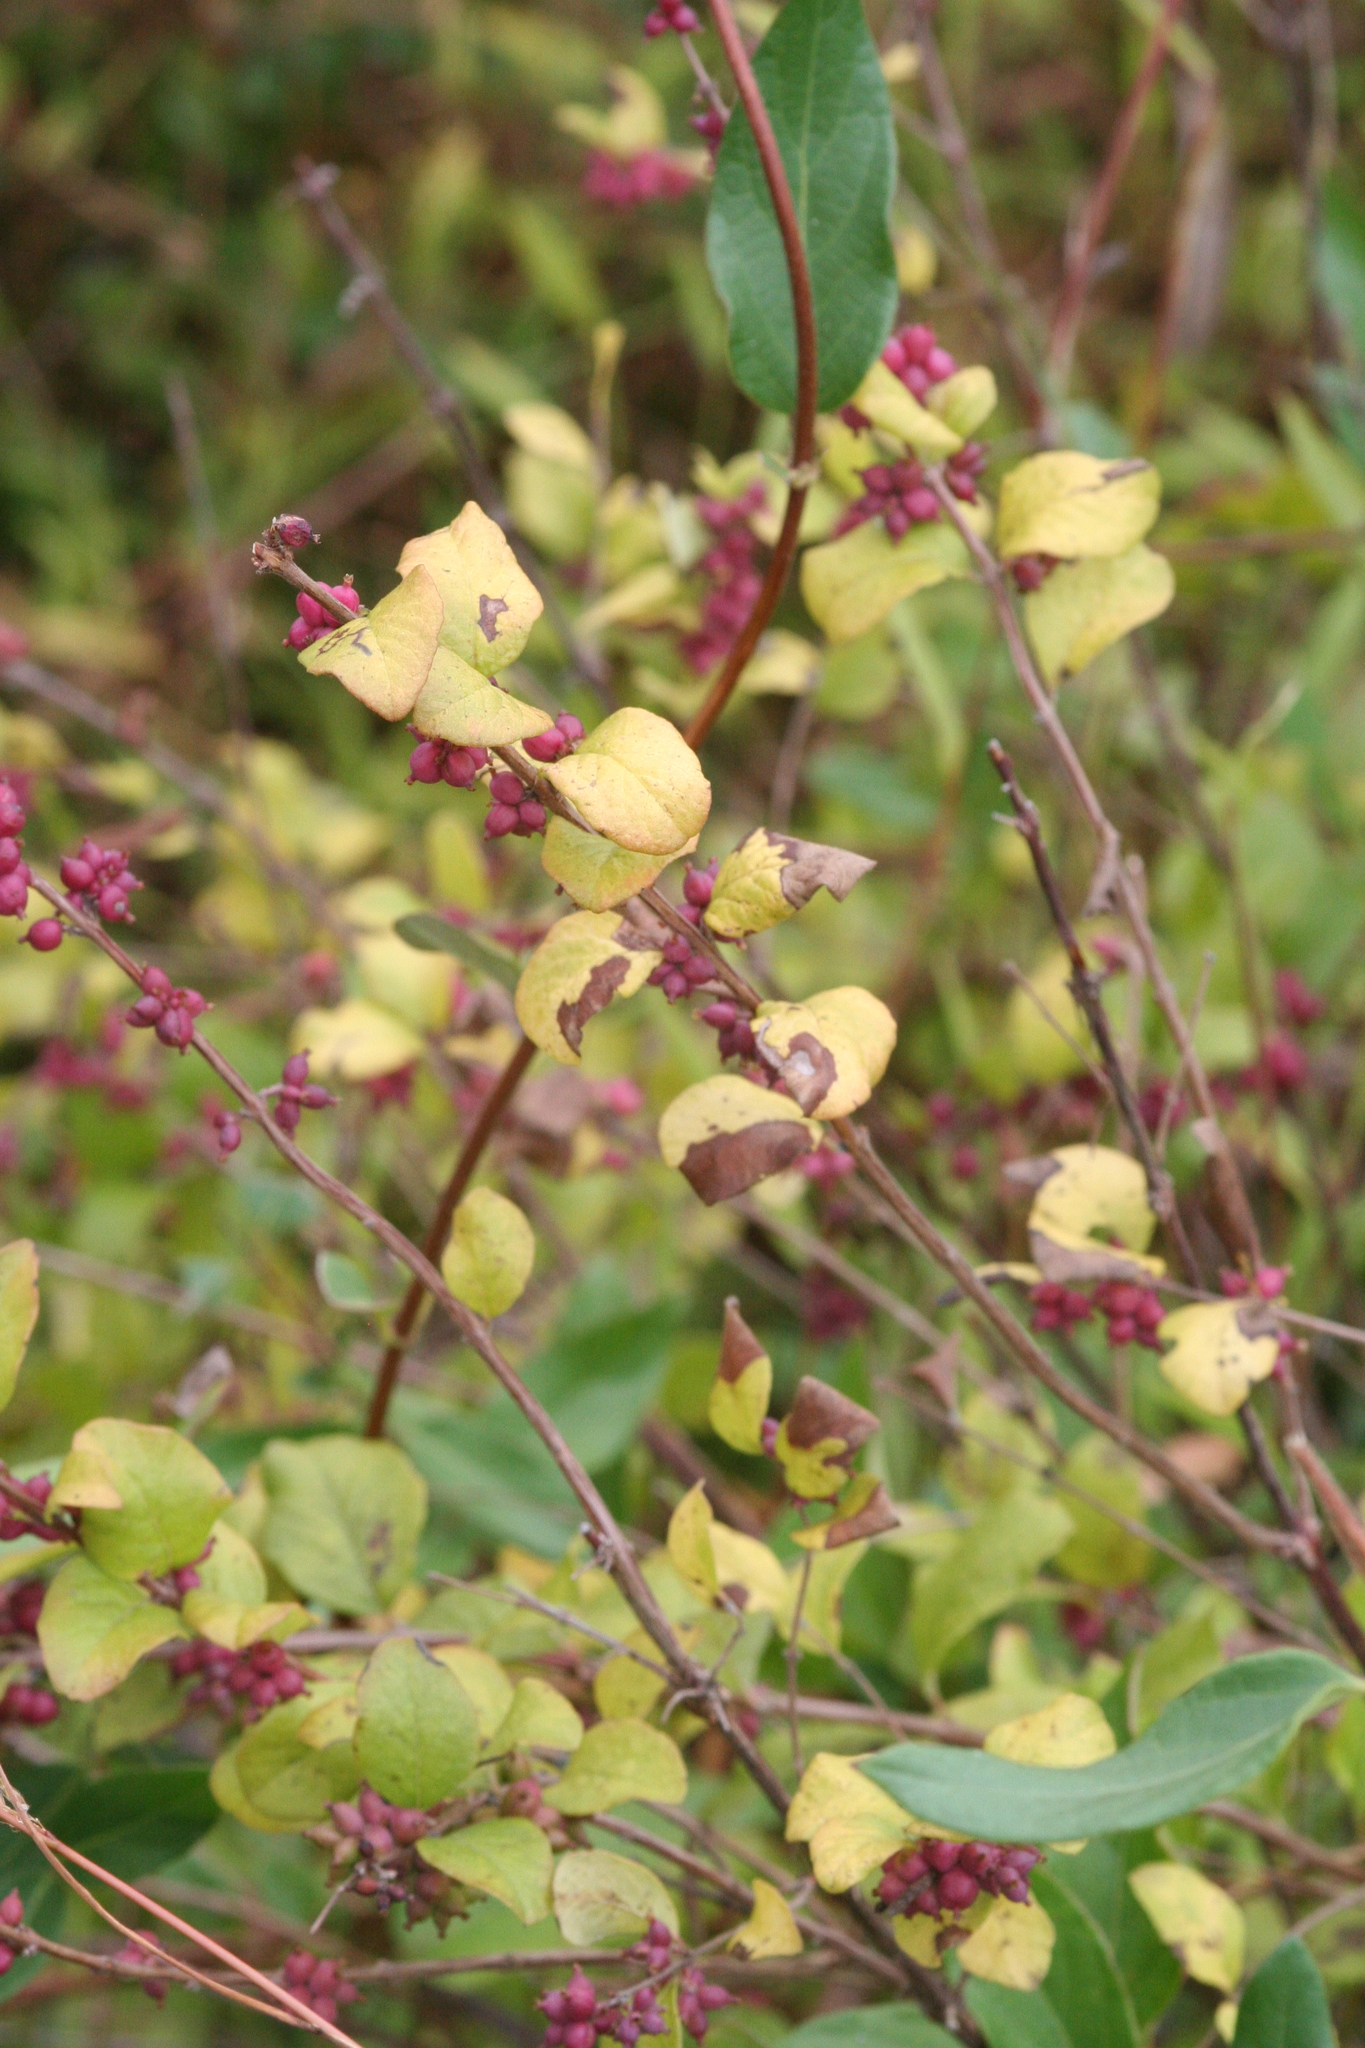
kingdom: Plantae
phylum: Tracheophyta
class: Magnoliopsida
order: Dipsacales
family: Caprifoliaceae
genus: Symphoricarpos
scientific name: Symphoricarpos orbiculatus
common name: Coralberry
